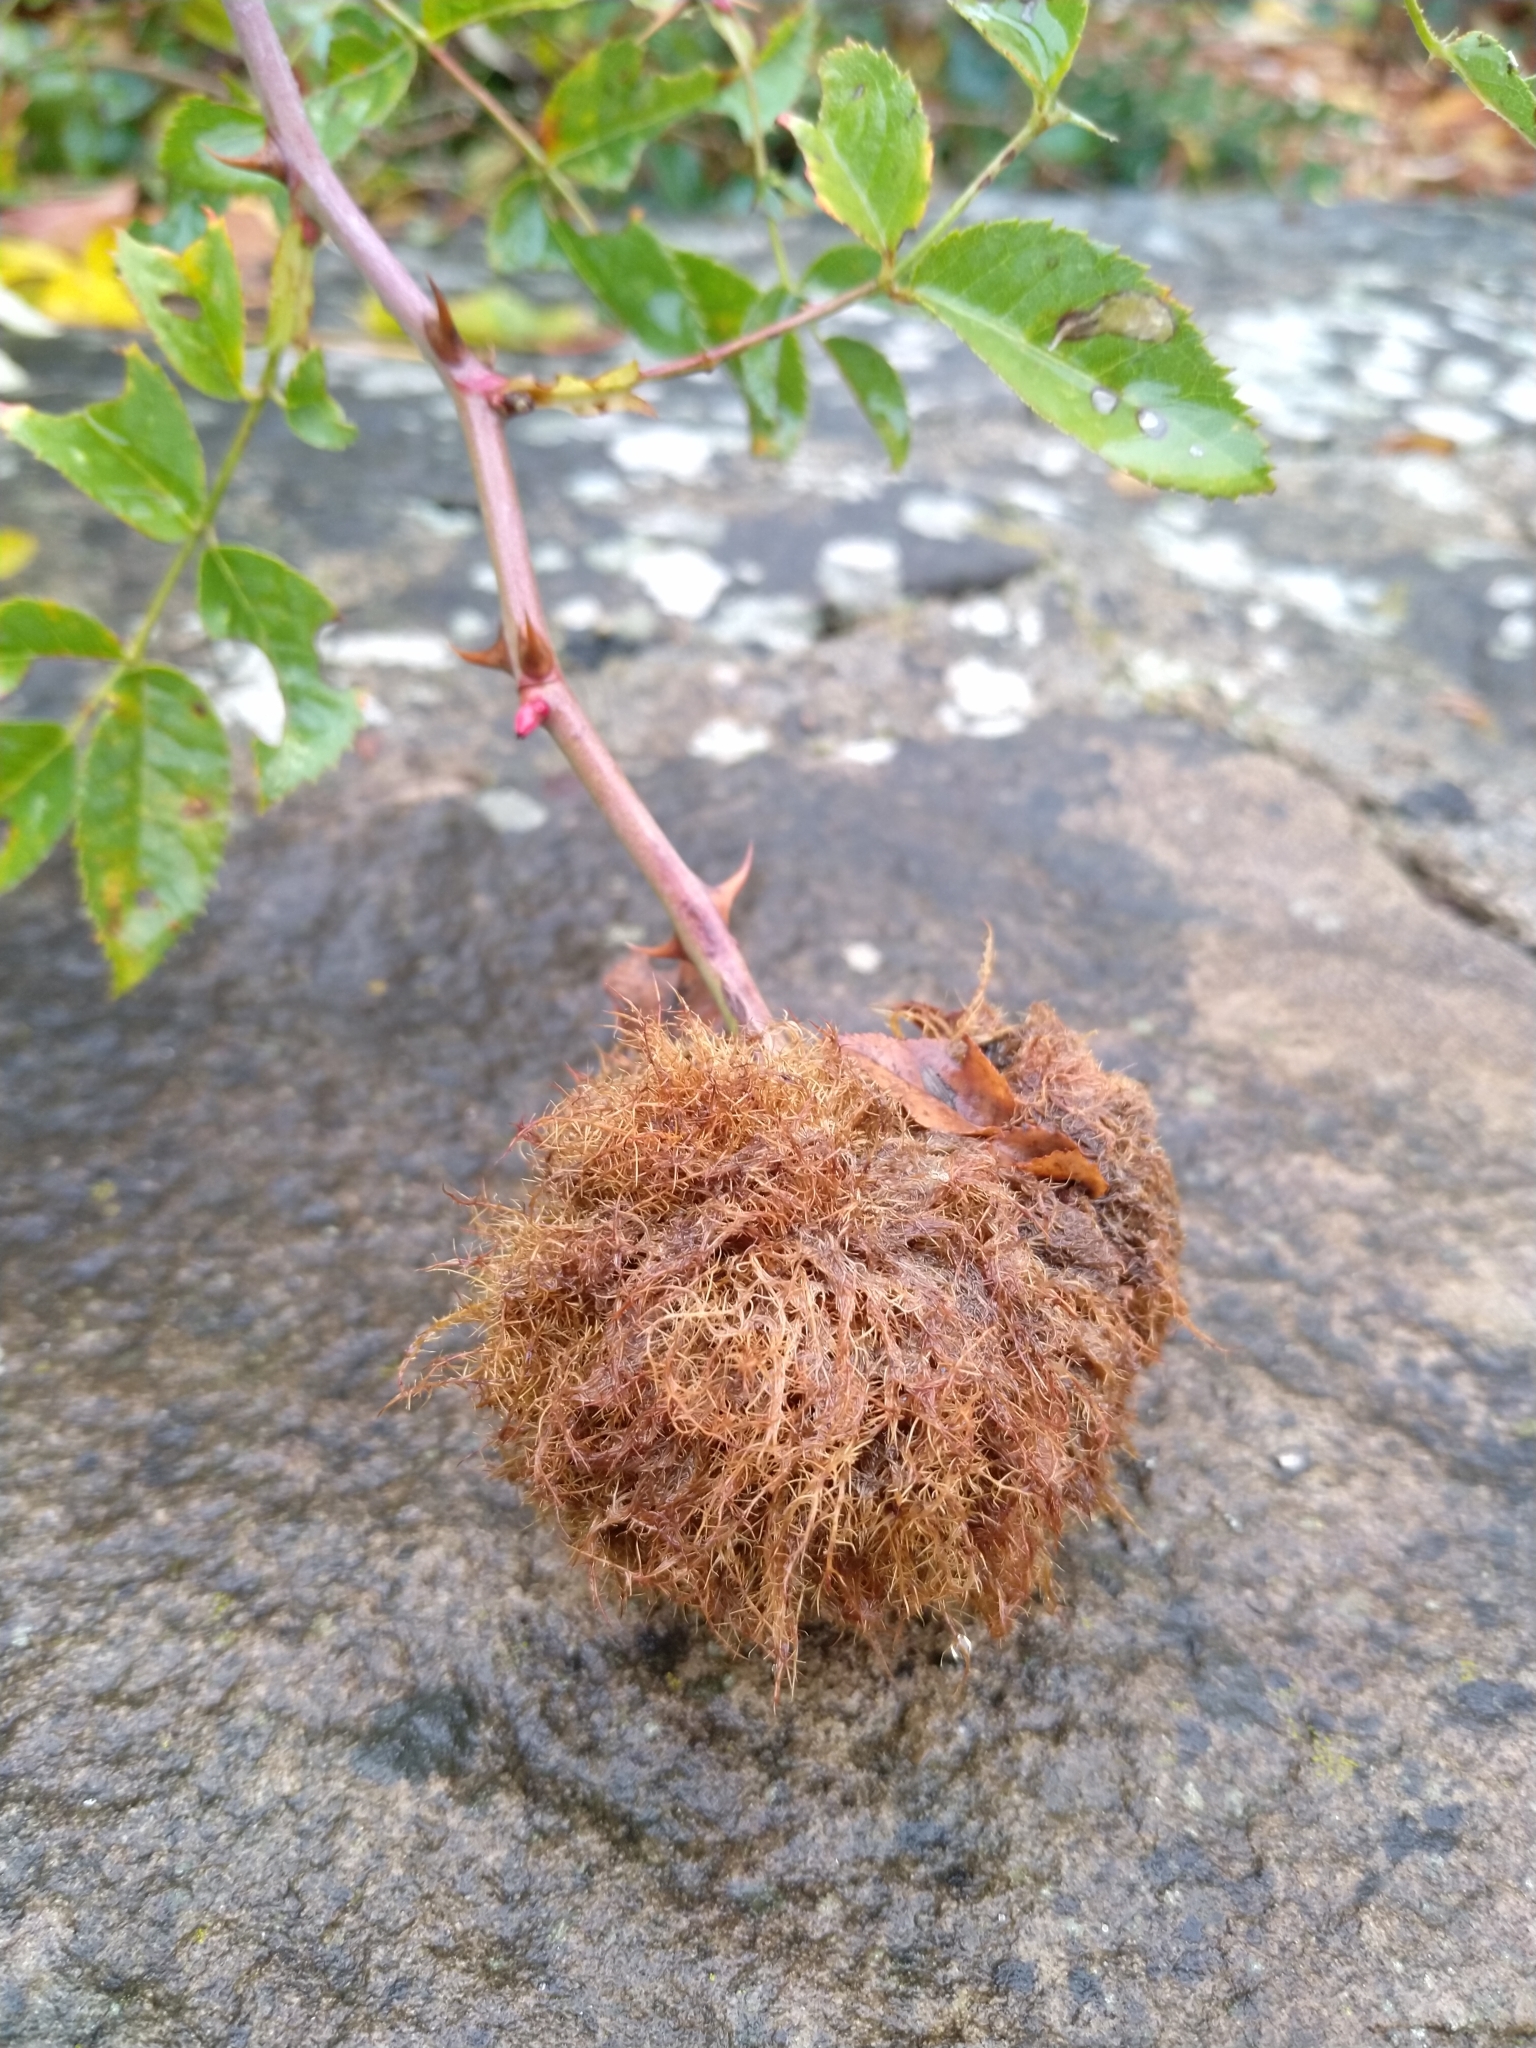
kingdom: Animalia
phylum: Arthropoda
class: Insecta
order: Hymenoptera
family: Cynipidae
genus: Diplolepis
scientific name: Diplolepis rosae
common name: Bedeguar gall
